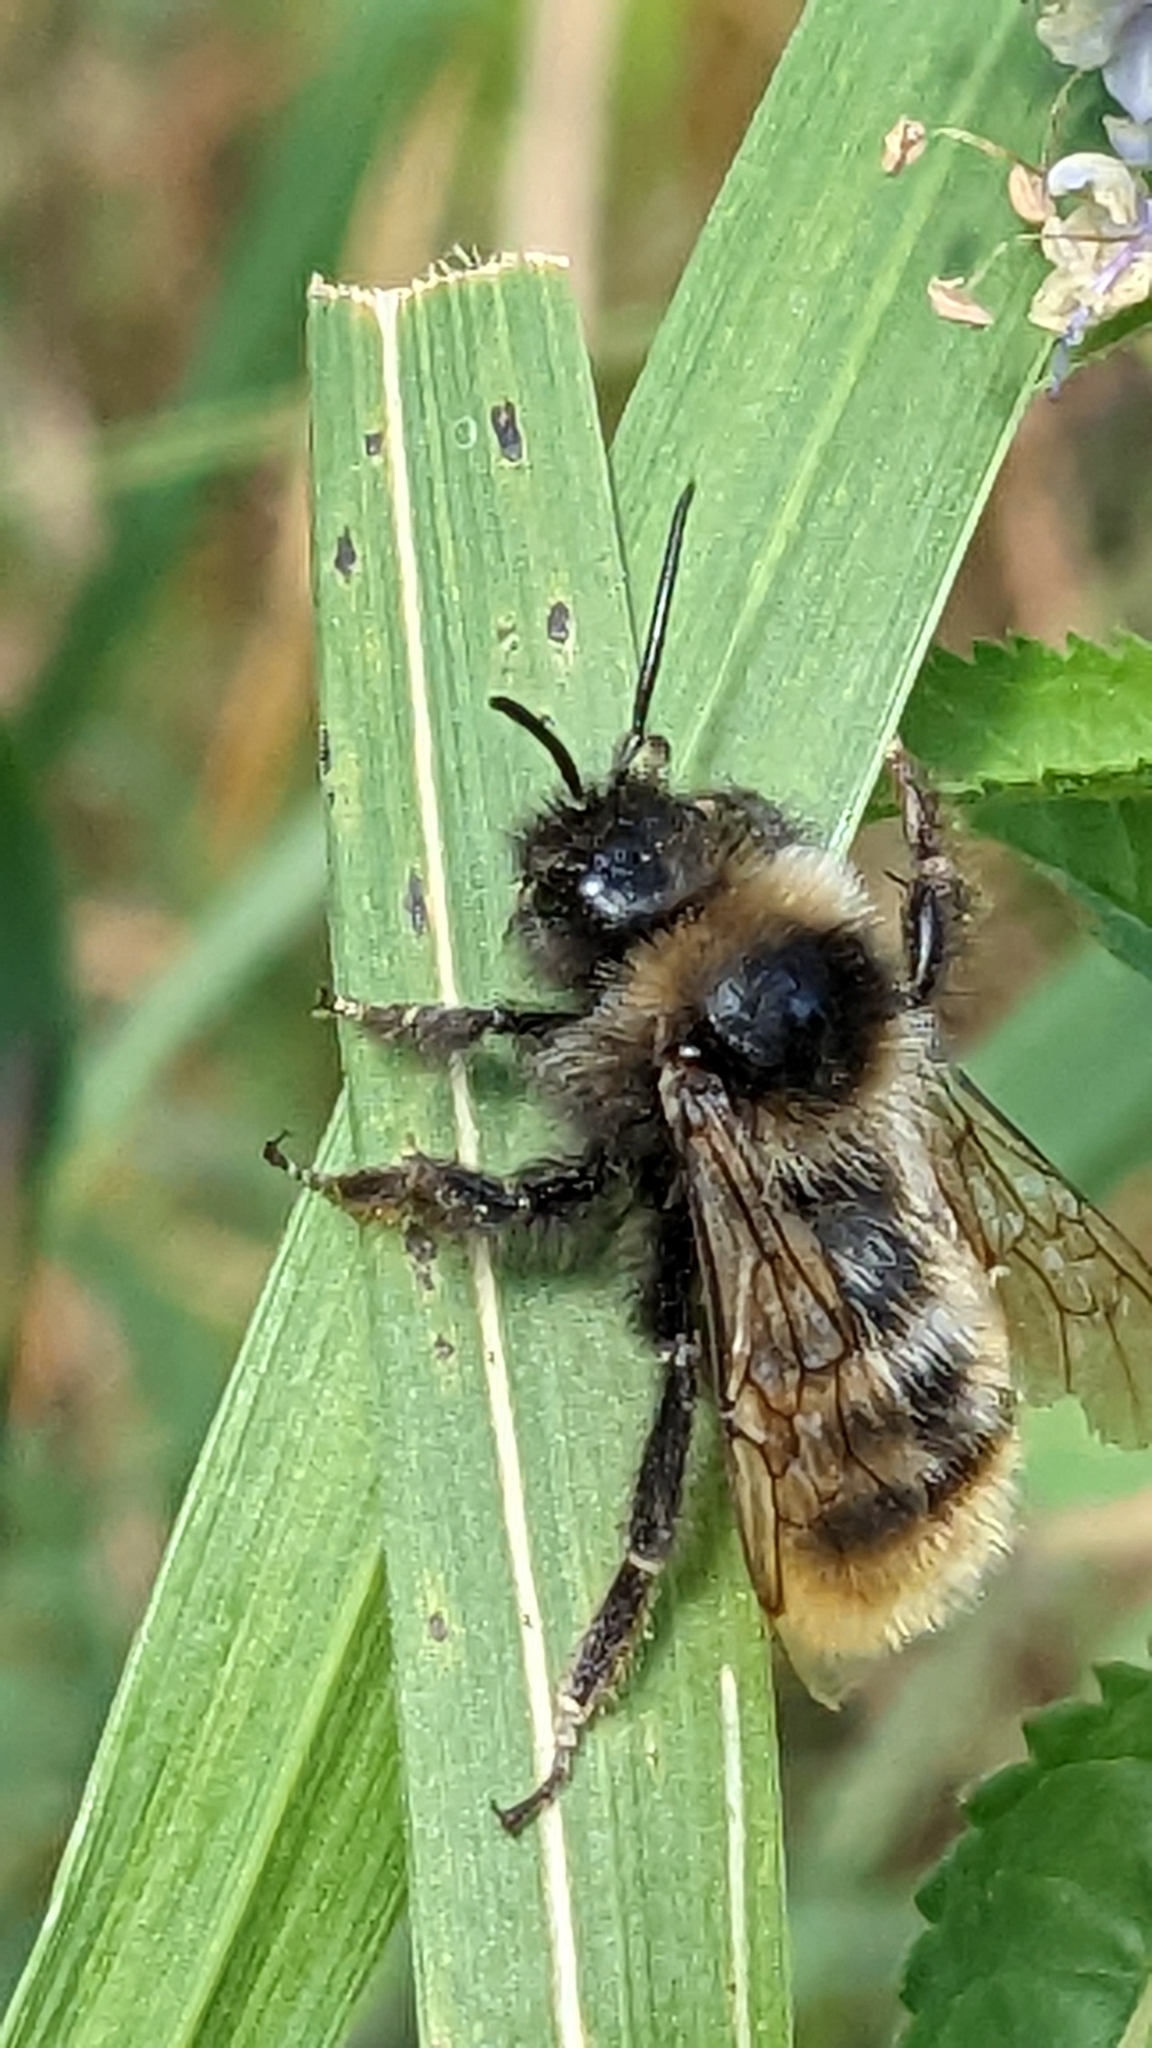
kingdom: Animalia
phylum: Arthropoda
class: Insecta
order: Hymenoptera
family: Apidae
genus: Bombus
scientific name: Bombus rupestris
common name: Hill cuckoo-bee
